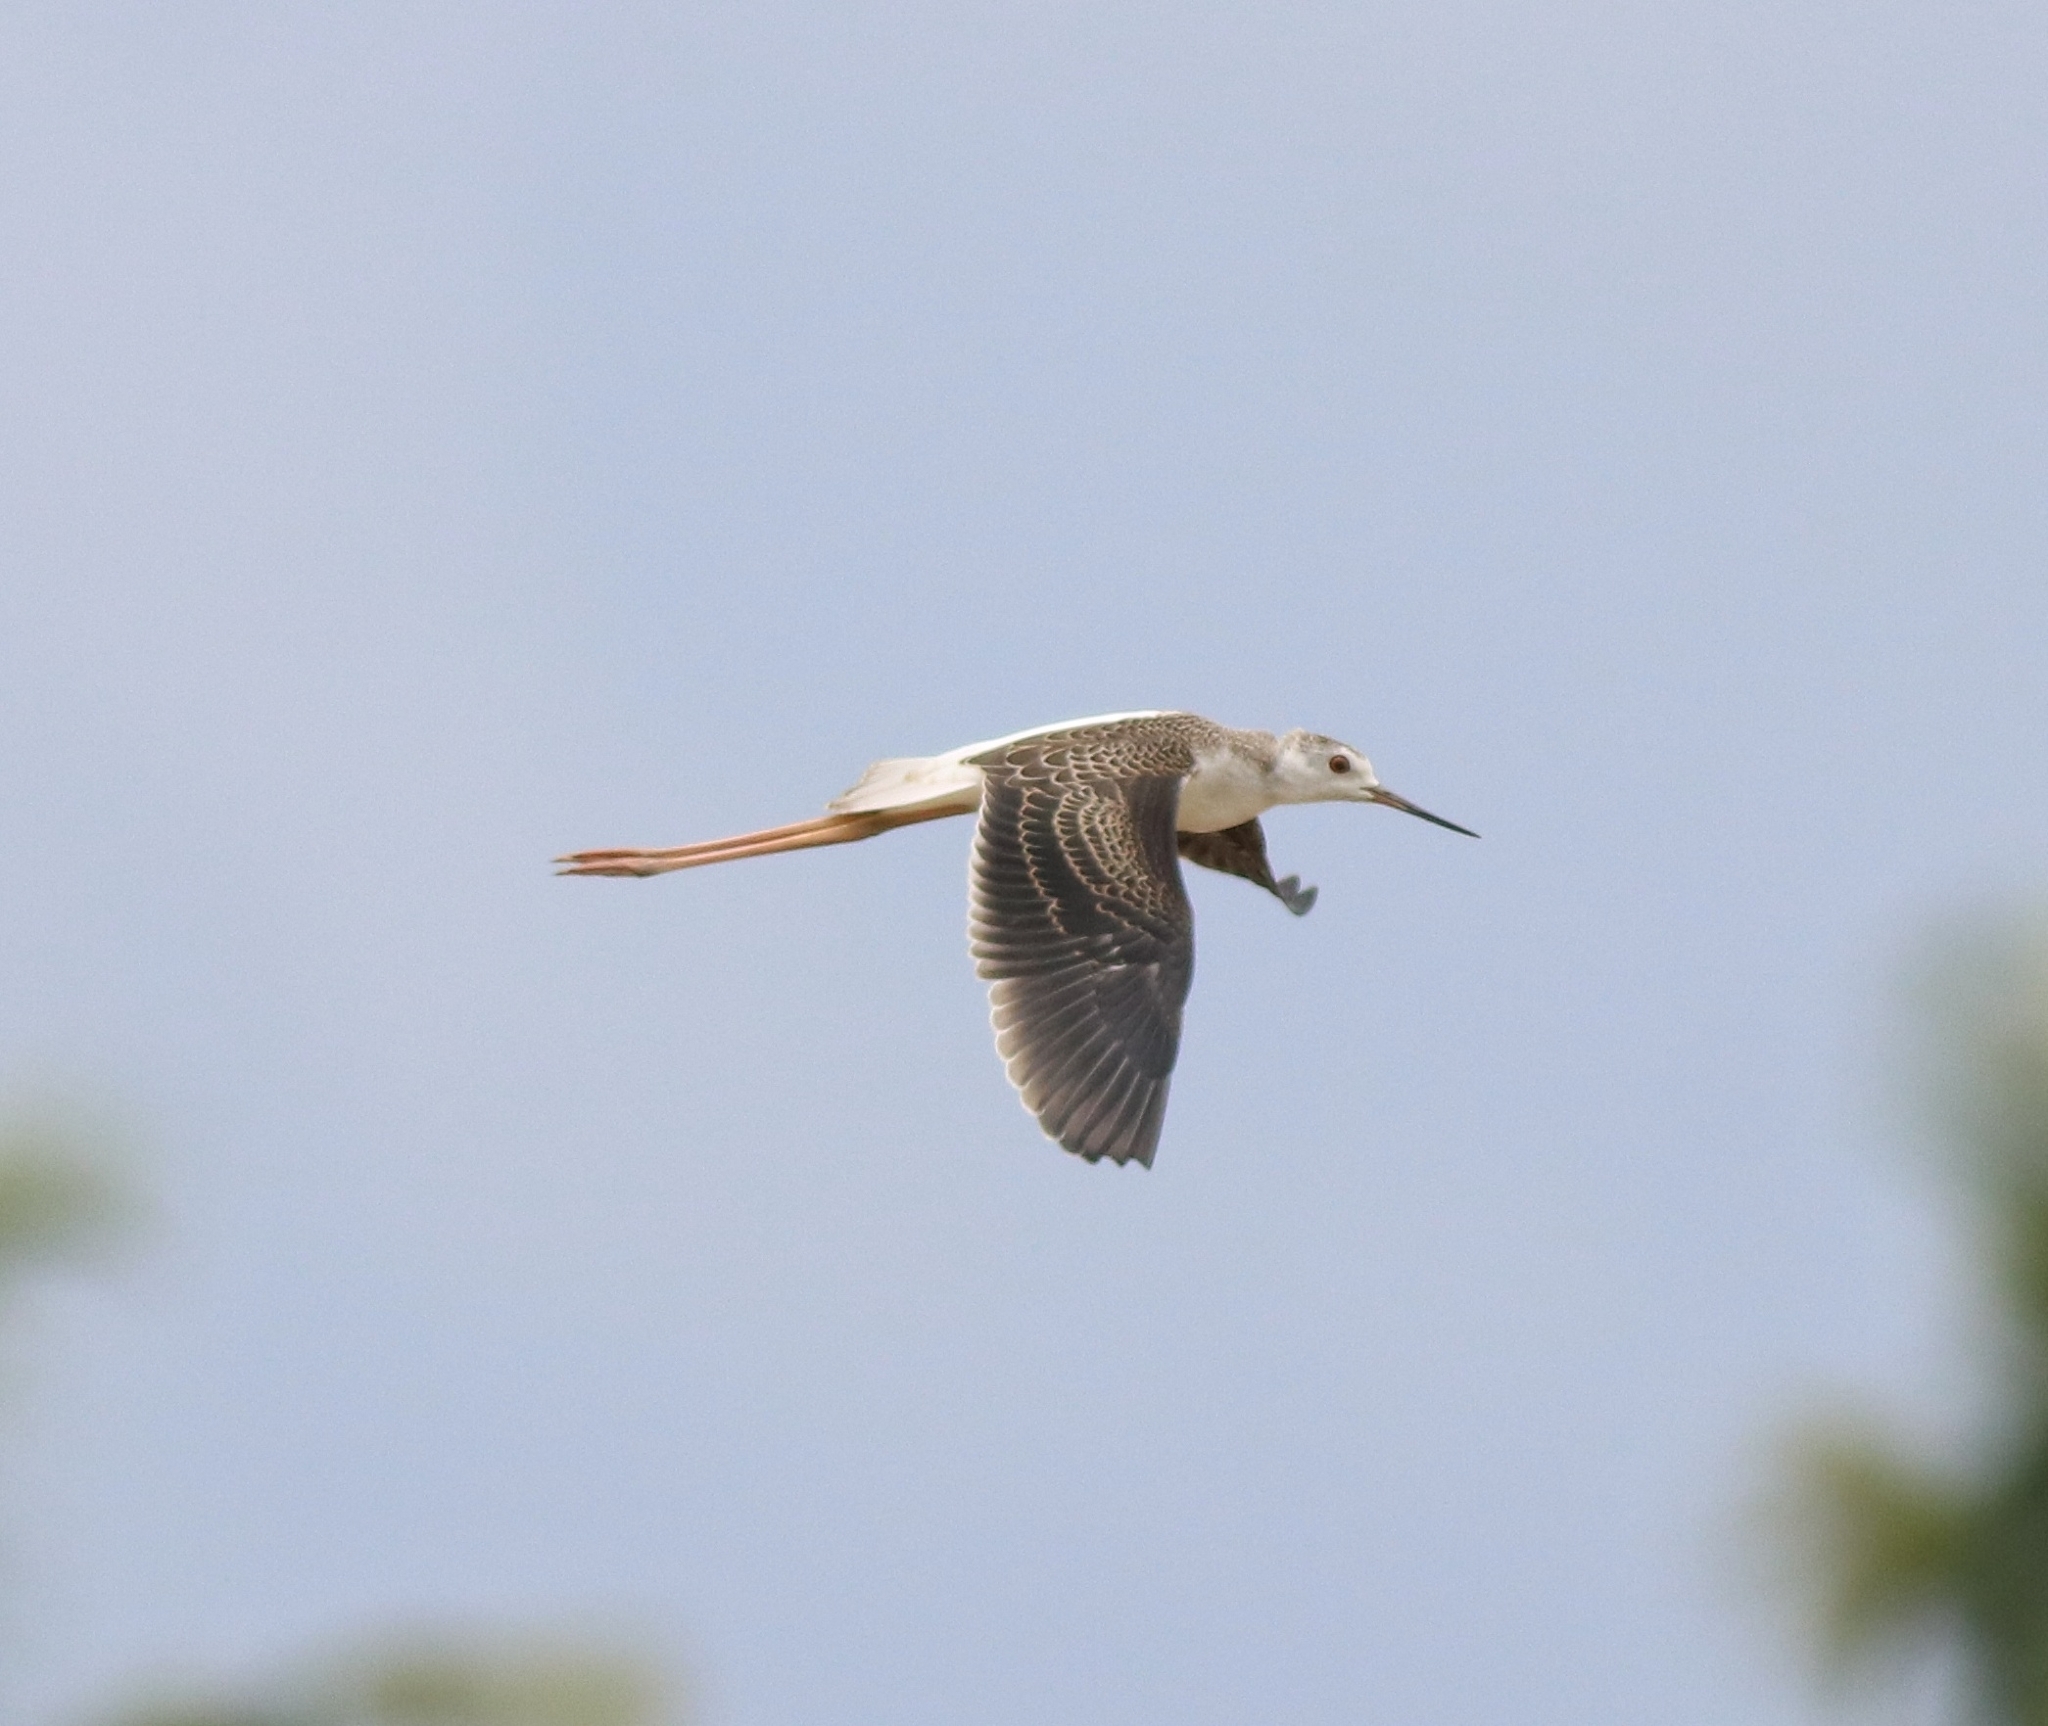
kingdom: Animalia
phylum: Chordata
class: Aves
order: Charadriiformes
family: Recurvirostridae
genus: Himantopus
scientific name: Himantopus himantopus
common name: Black-winged stilt
